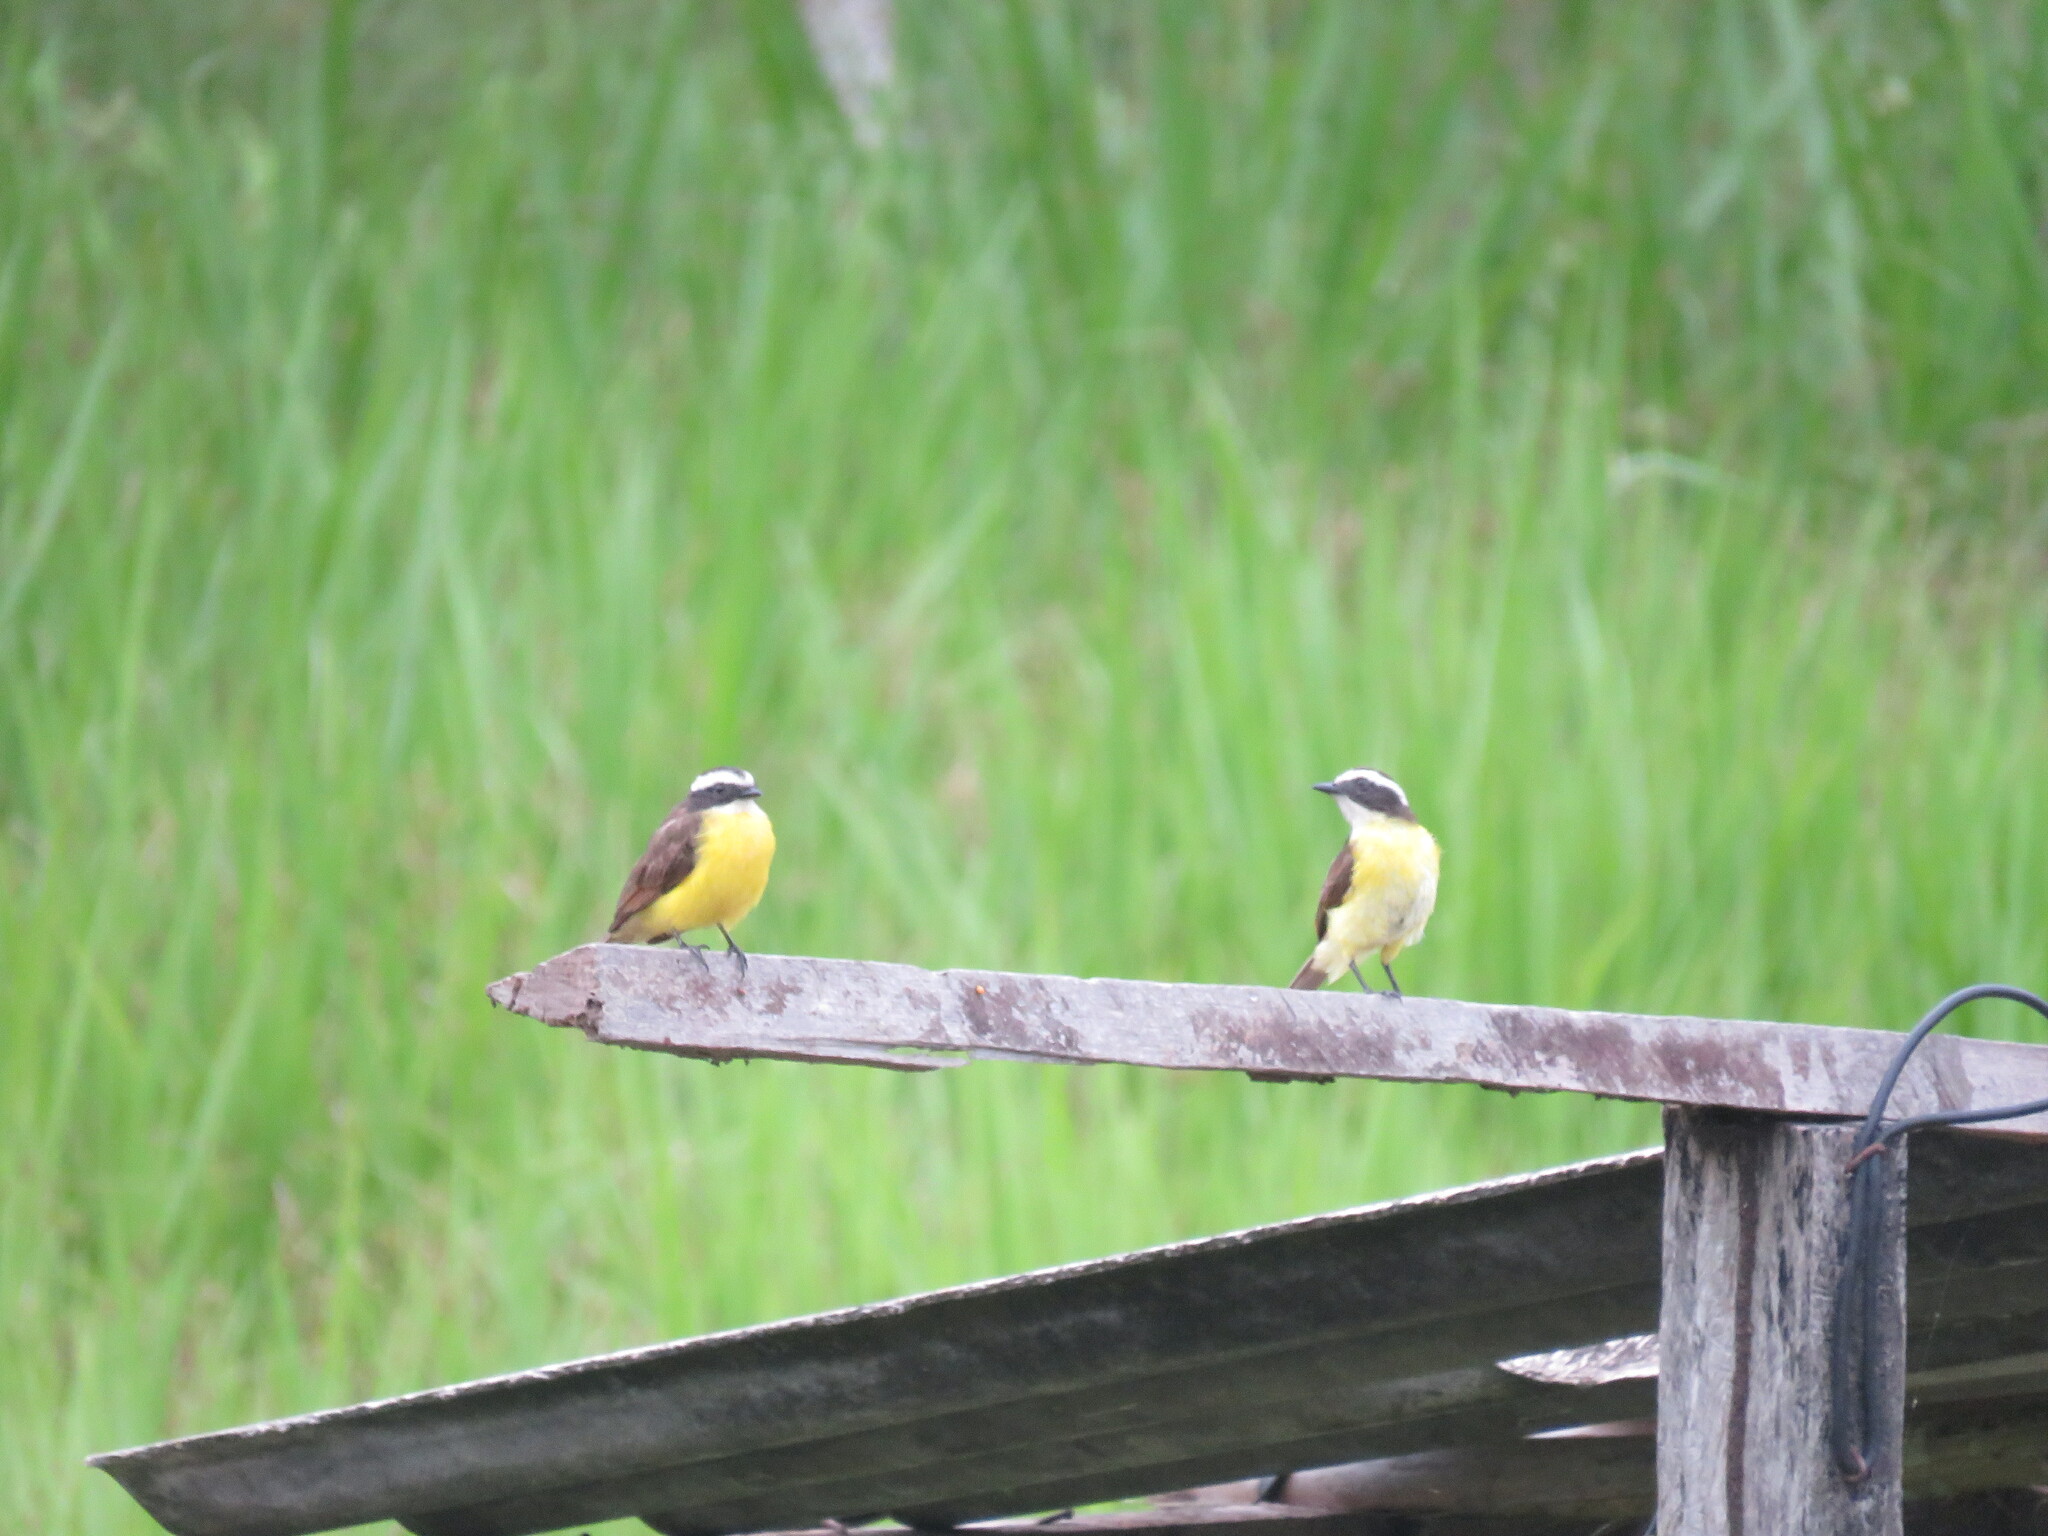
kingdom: Animalia
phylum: Chordata
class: Aves
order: Passeriformes
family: Tyrannidae
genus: Myiozetetes
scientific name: Myiozetetes cayanensis
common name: Rusty-margined flycatcher
